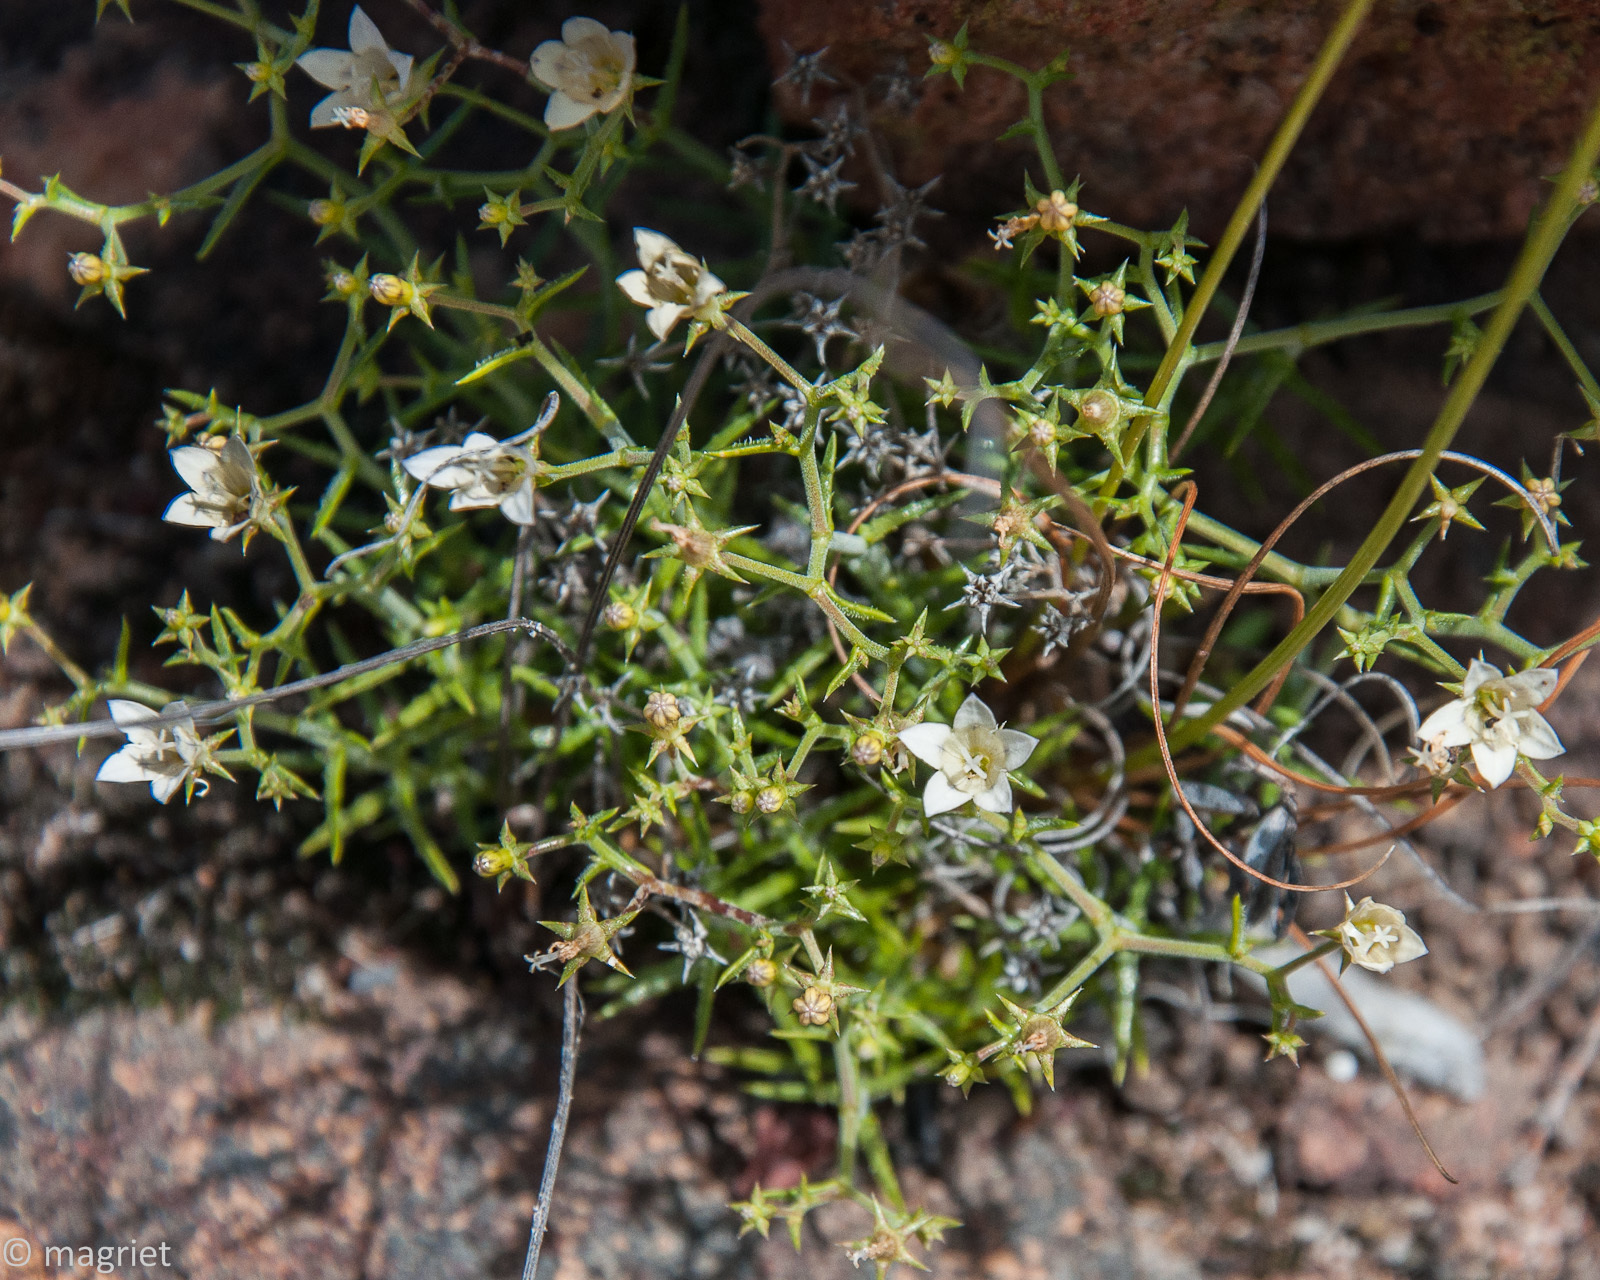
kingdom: Plantae
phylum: Tracheophyta
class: Magnoliopsida
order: Asterales
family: Campanulaceae
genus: Wahlenbergia
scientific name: Wahlenbergia decipiens
